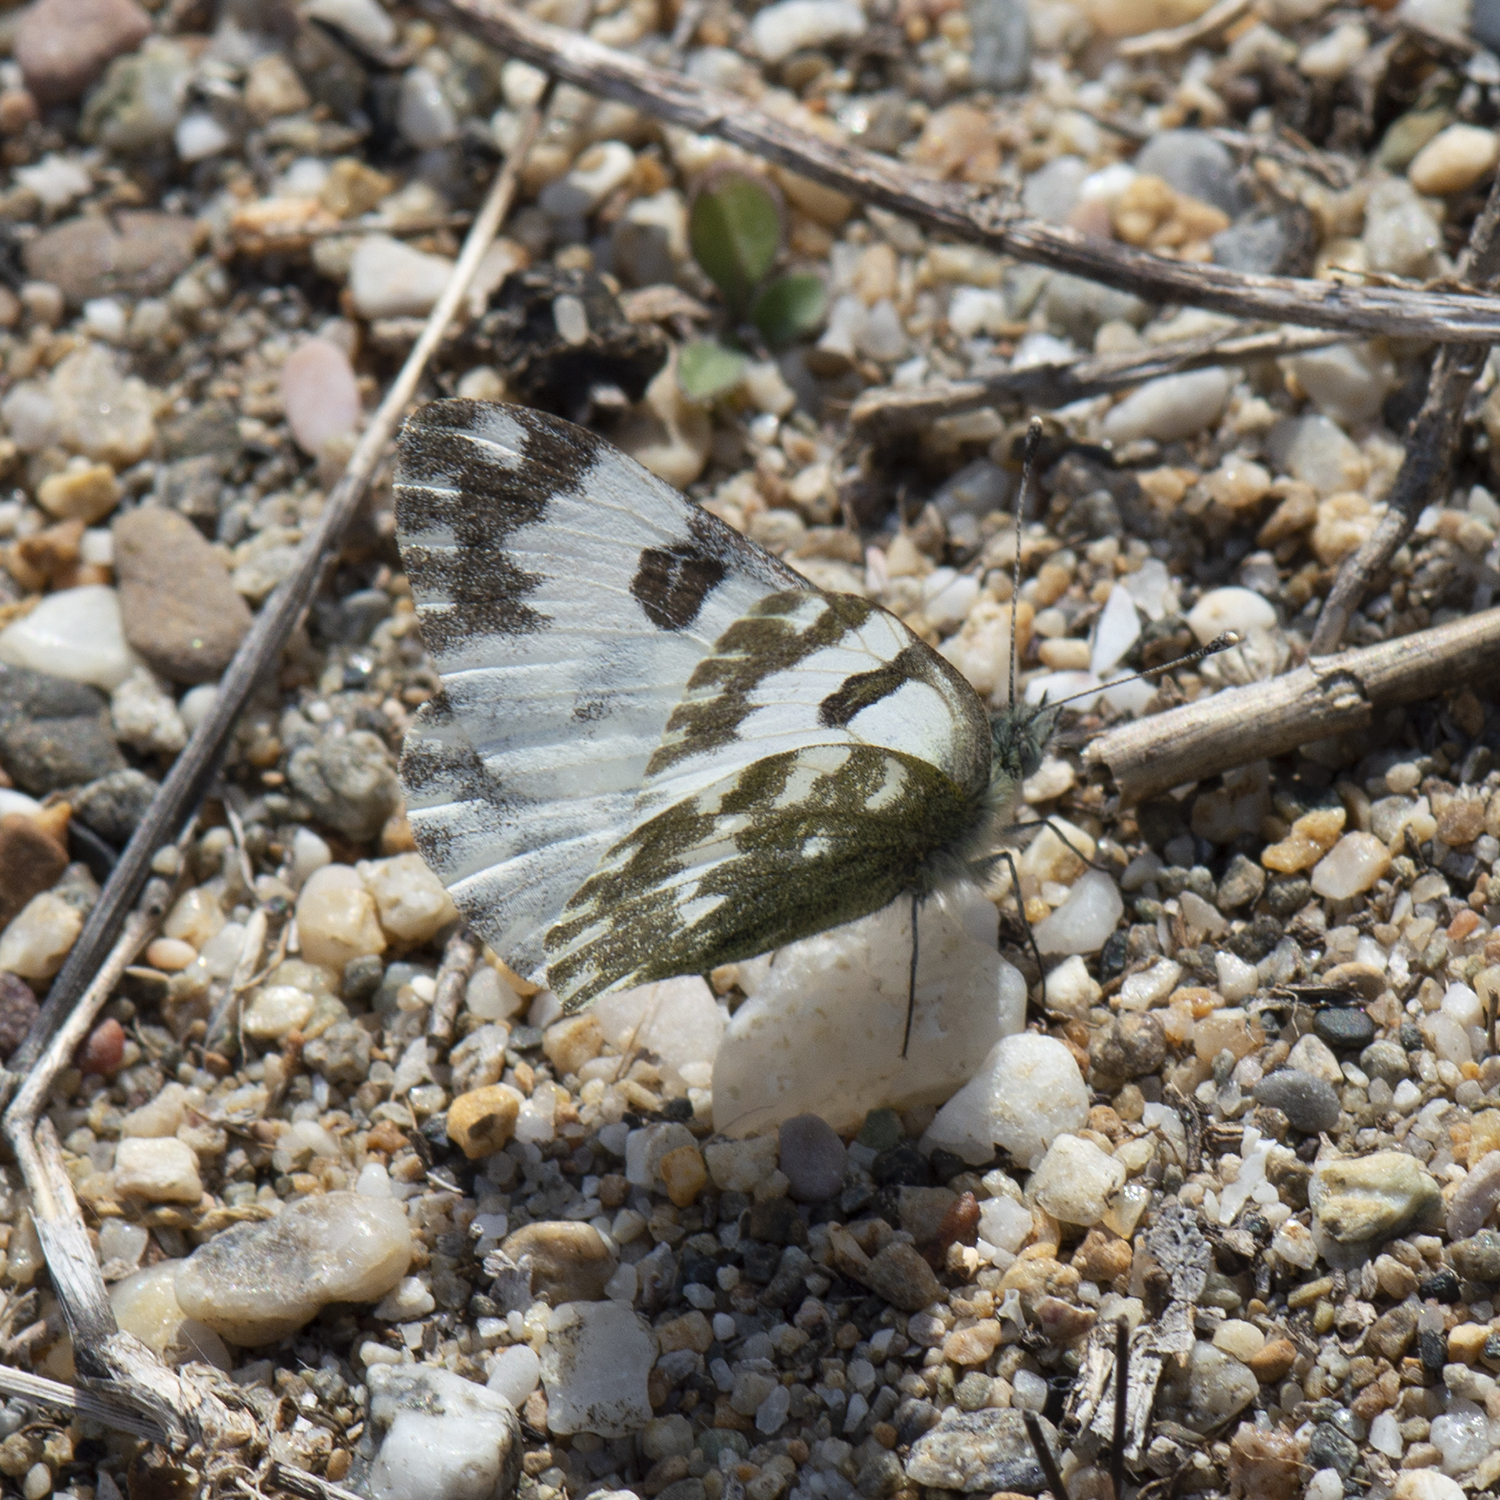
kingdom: Animalia
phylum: Arthropoda
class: Insecta
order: Lepidoptera
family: Pieridae
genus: Pontia
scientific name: Pontia edusa
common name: Eastern bath white
